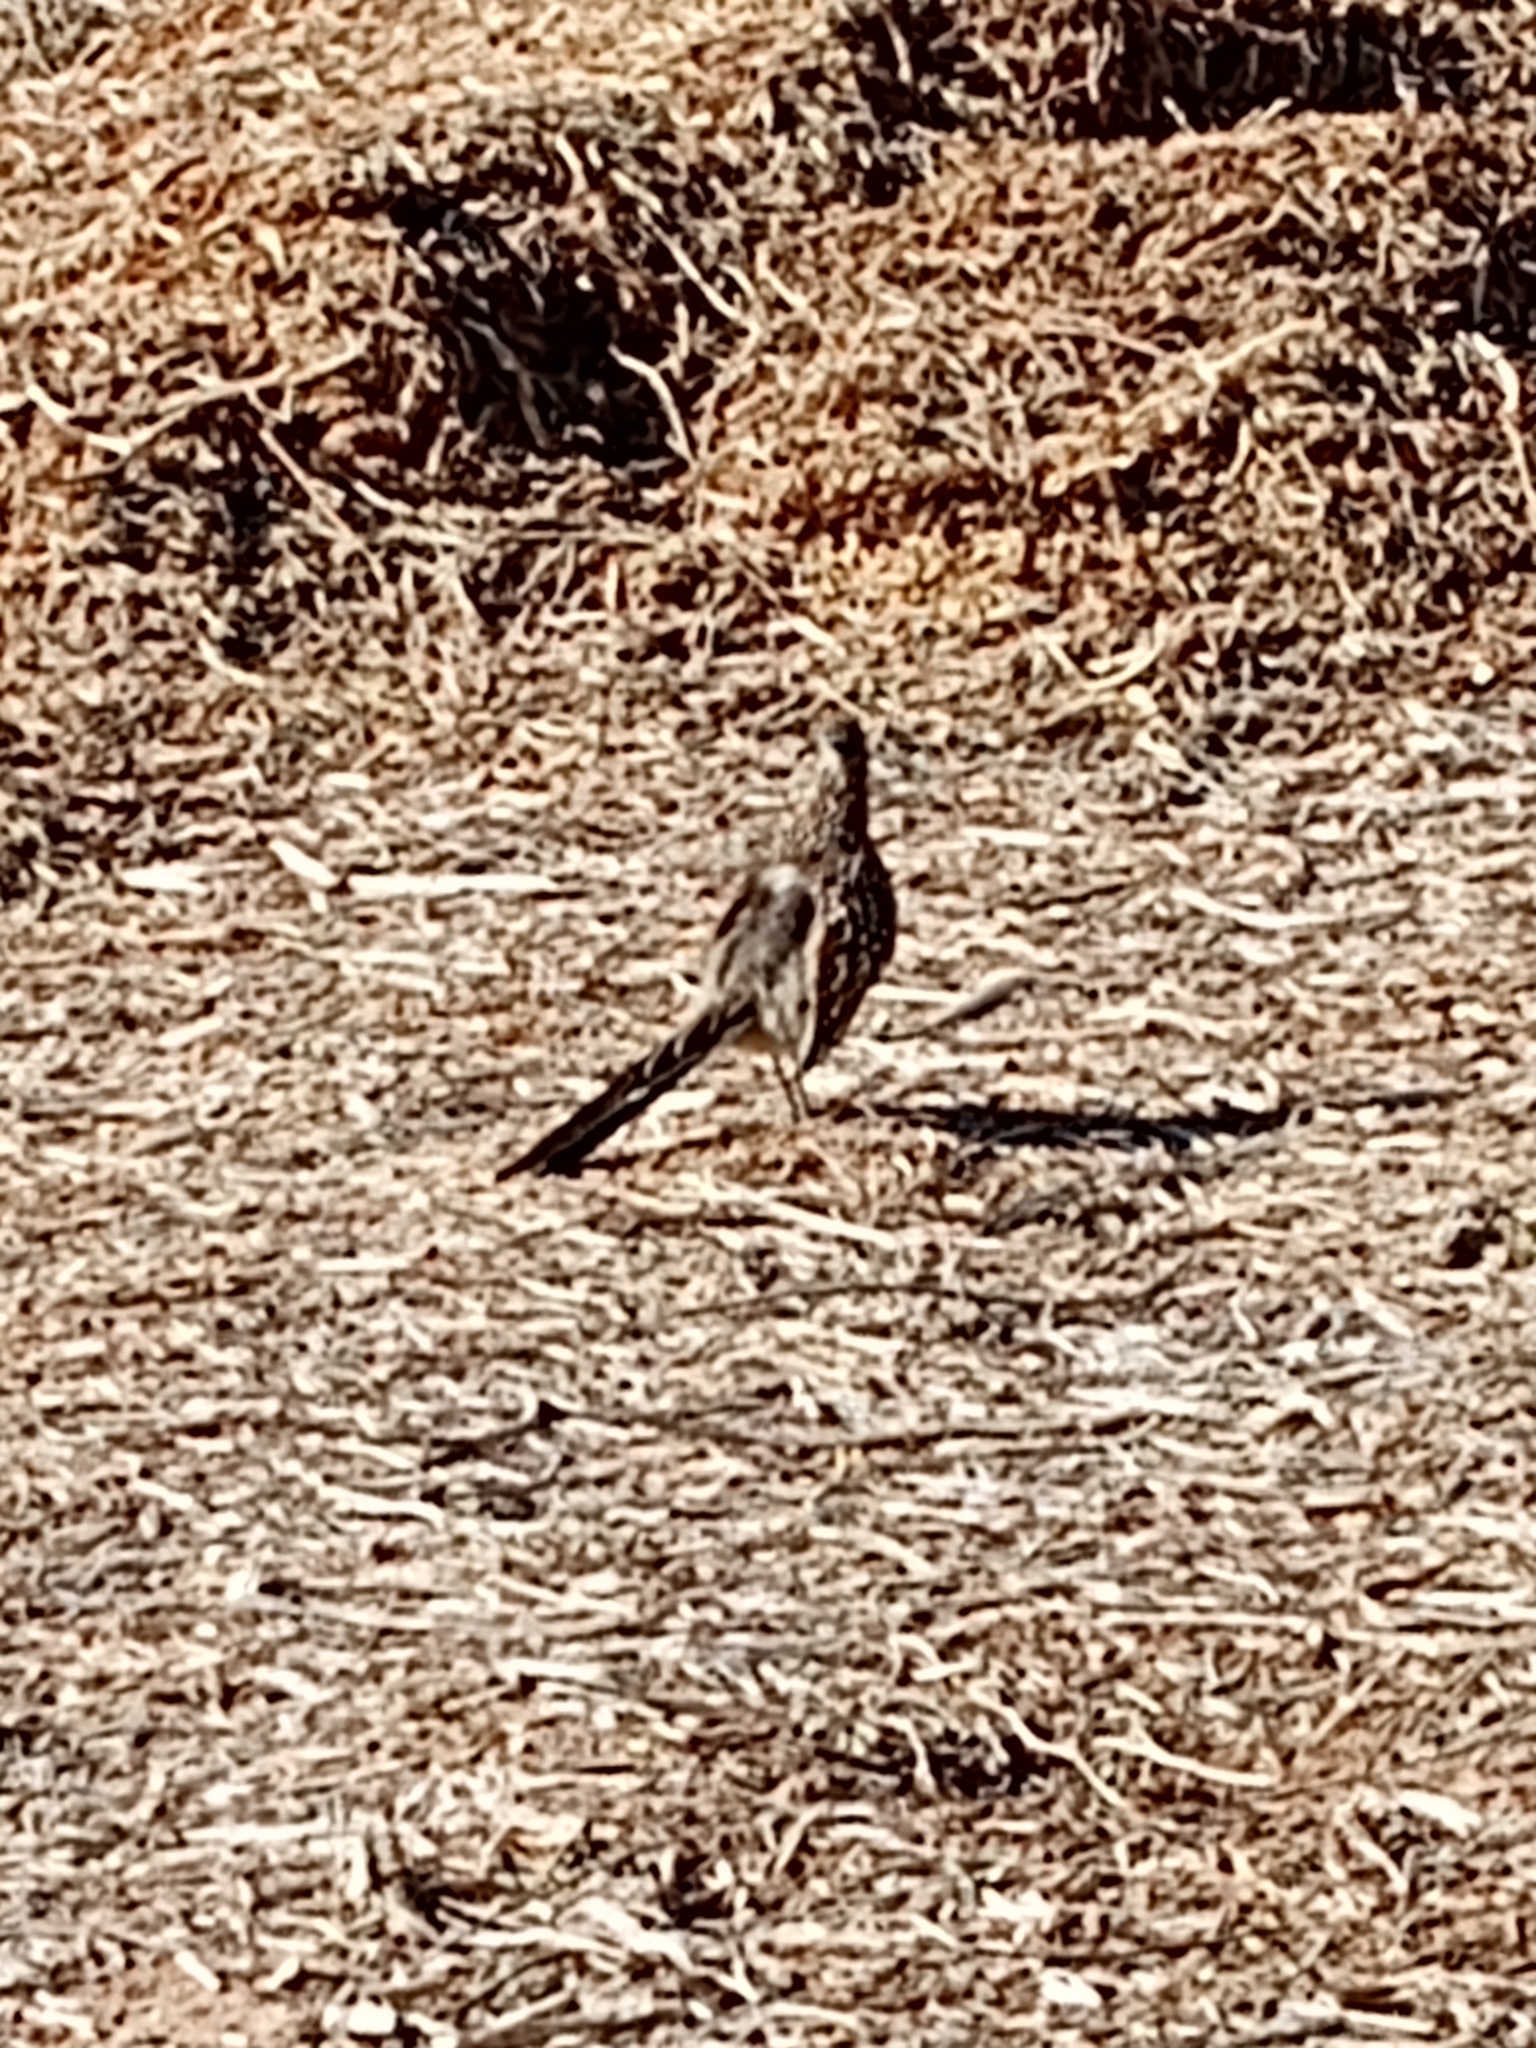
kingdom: Animalia
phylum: Chordata
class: Aves
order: Cuculiformes
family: Cuculidae
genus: Geococcyx
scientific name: Geococcyx californianus
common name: Greater roadrunner
